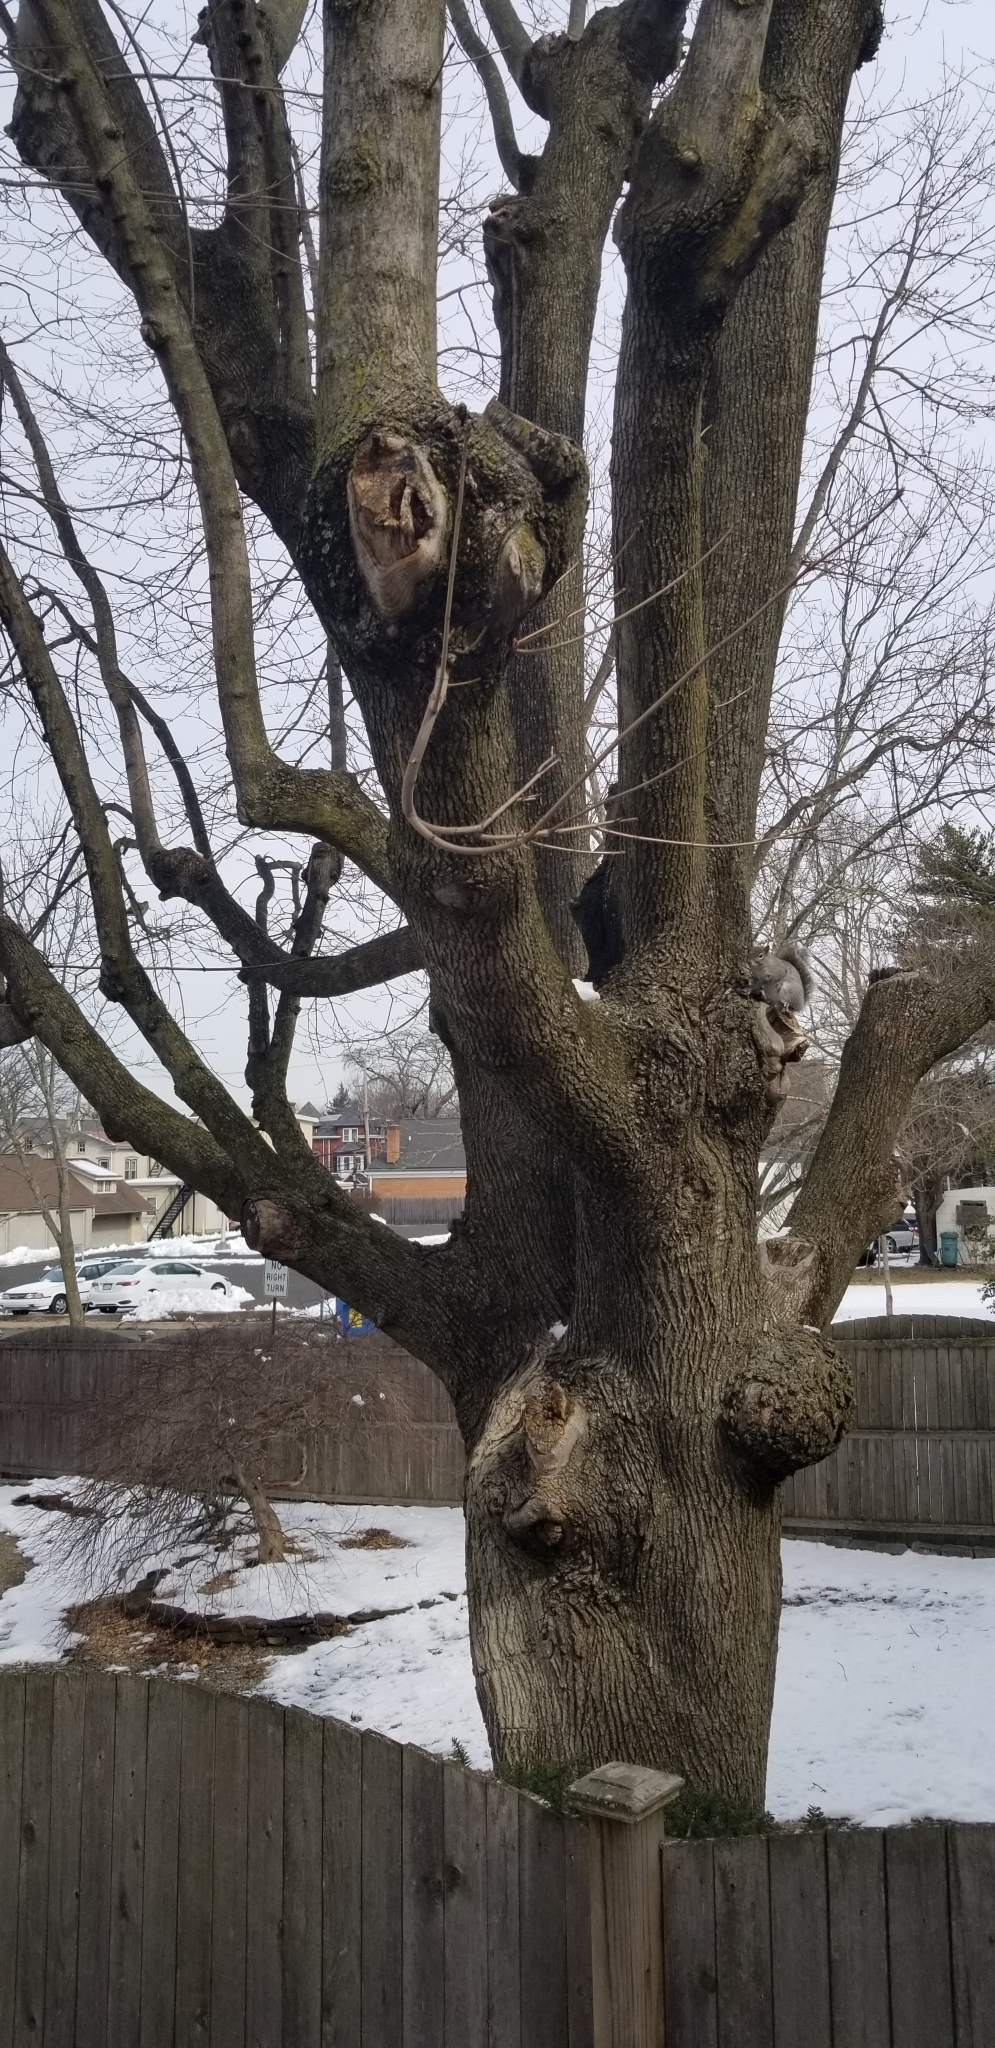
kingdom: Animalia
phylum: Chordata
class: Mammalia
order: Rodentia
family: Sciuridae
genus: Sciurus
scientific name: Sciurus carolinensis
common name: Eastern gray squirrel
